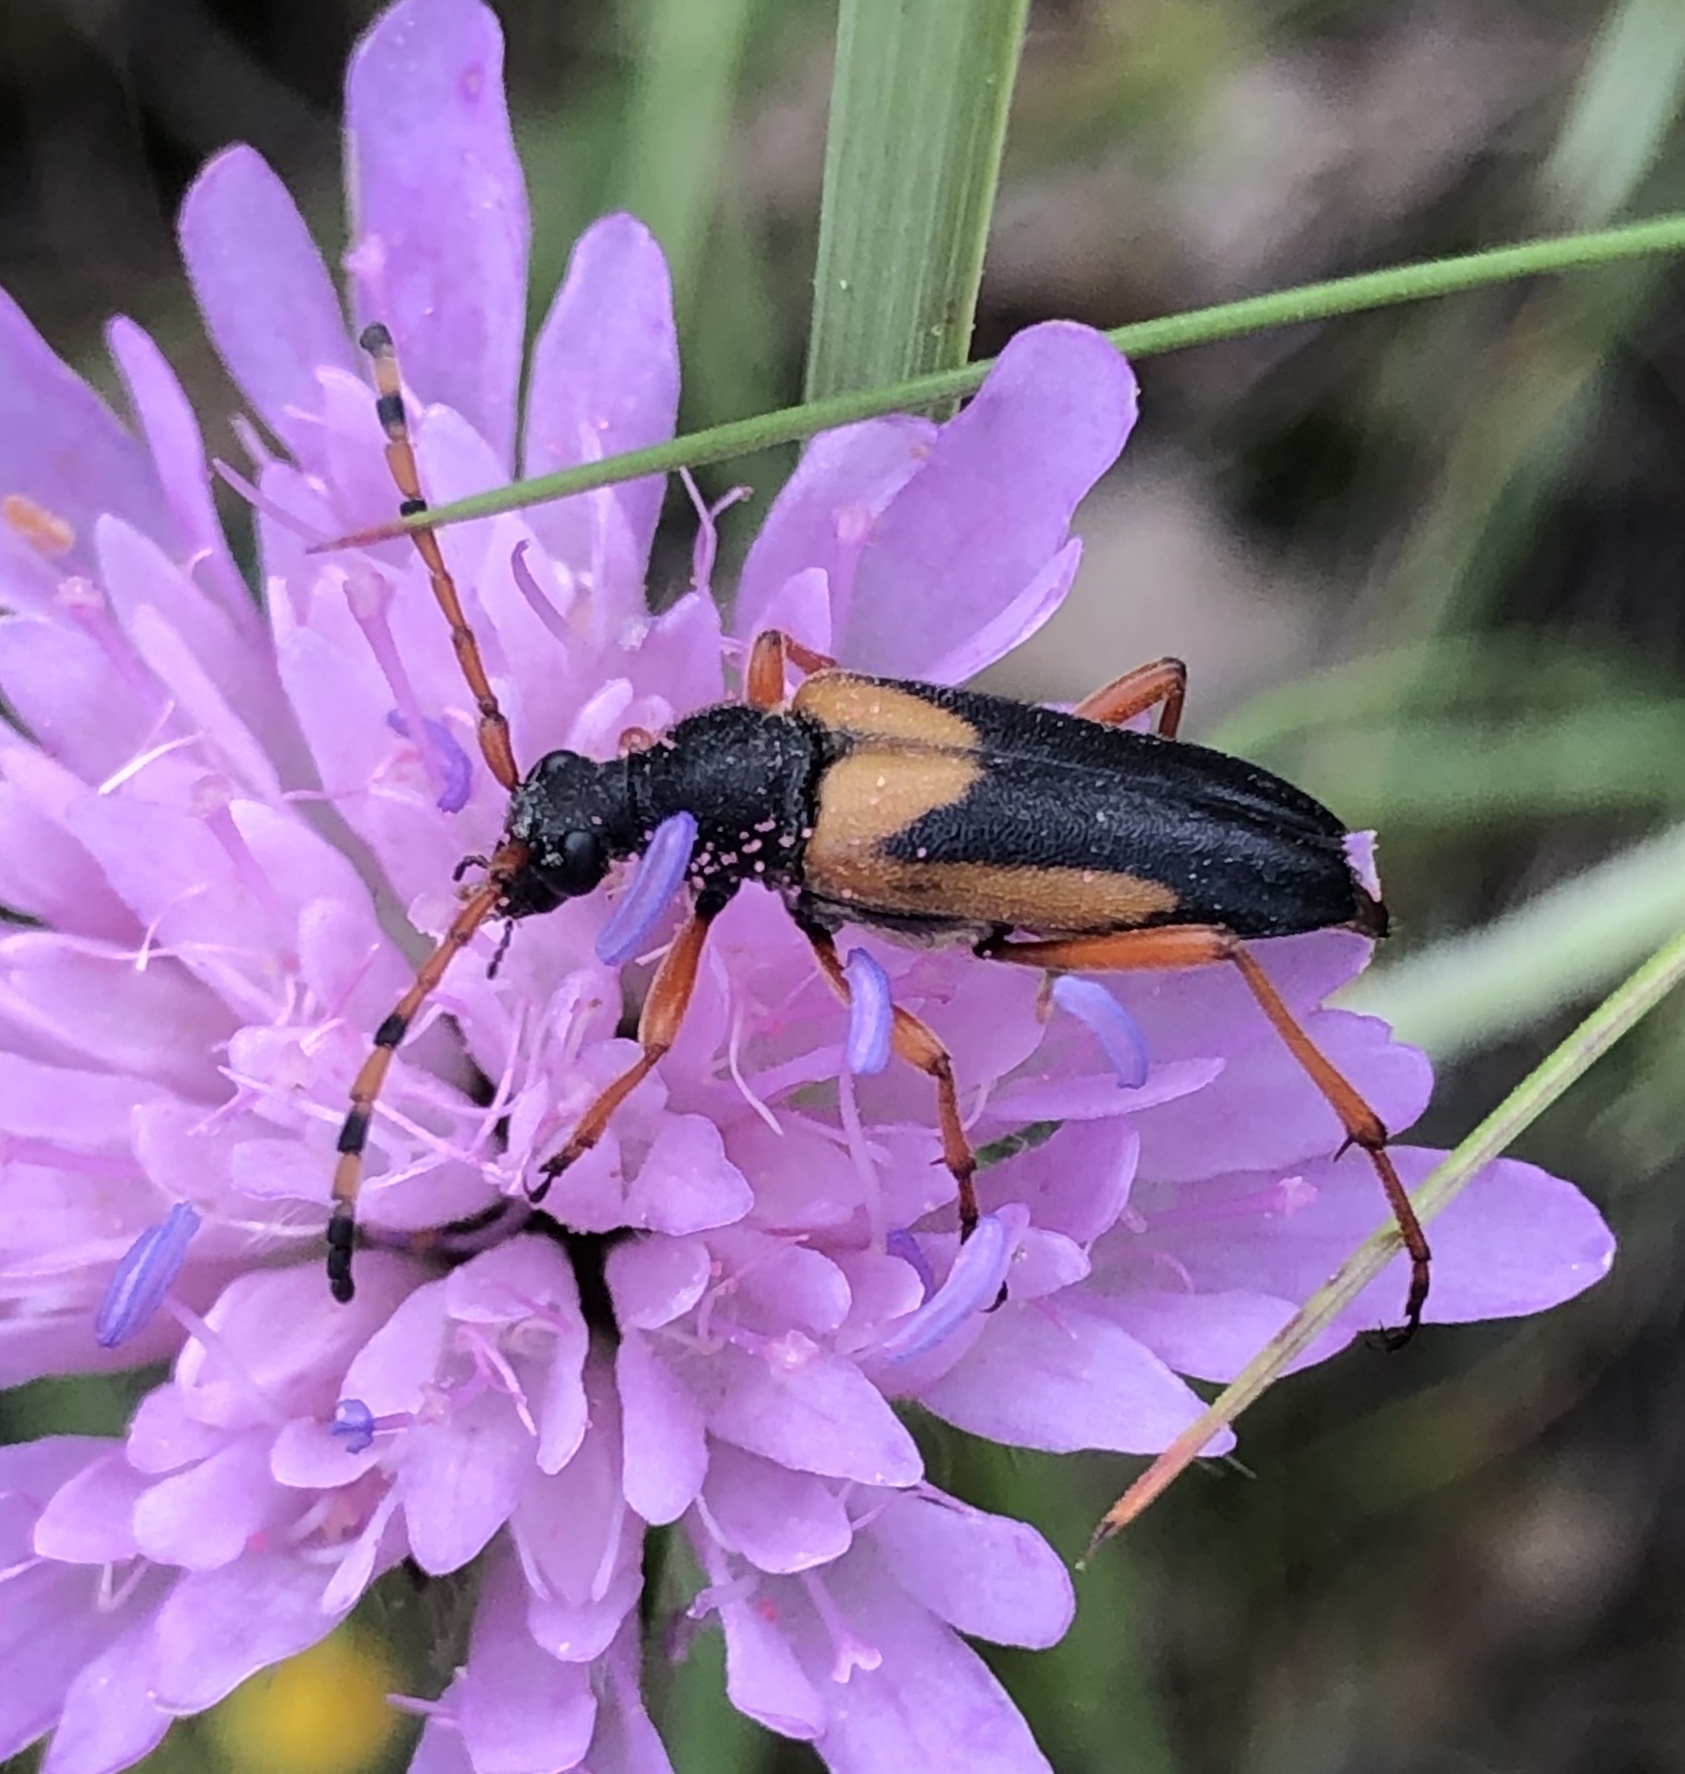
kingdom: Animalia
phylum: Arthropoda
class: Insecta
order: Coleoptera
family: Cerambycidae
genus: Stictoleptura
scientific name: Stictoleptura stragulata
